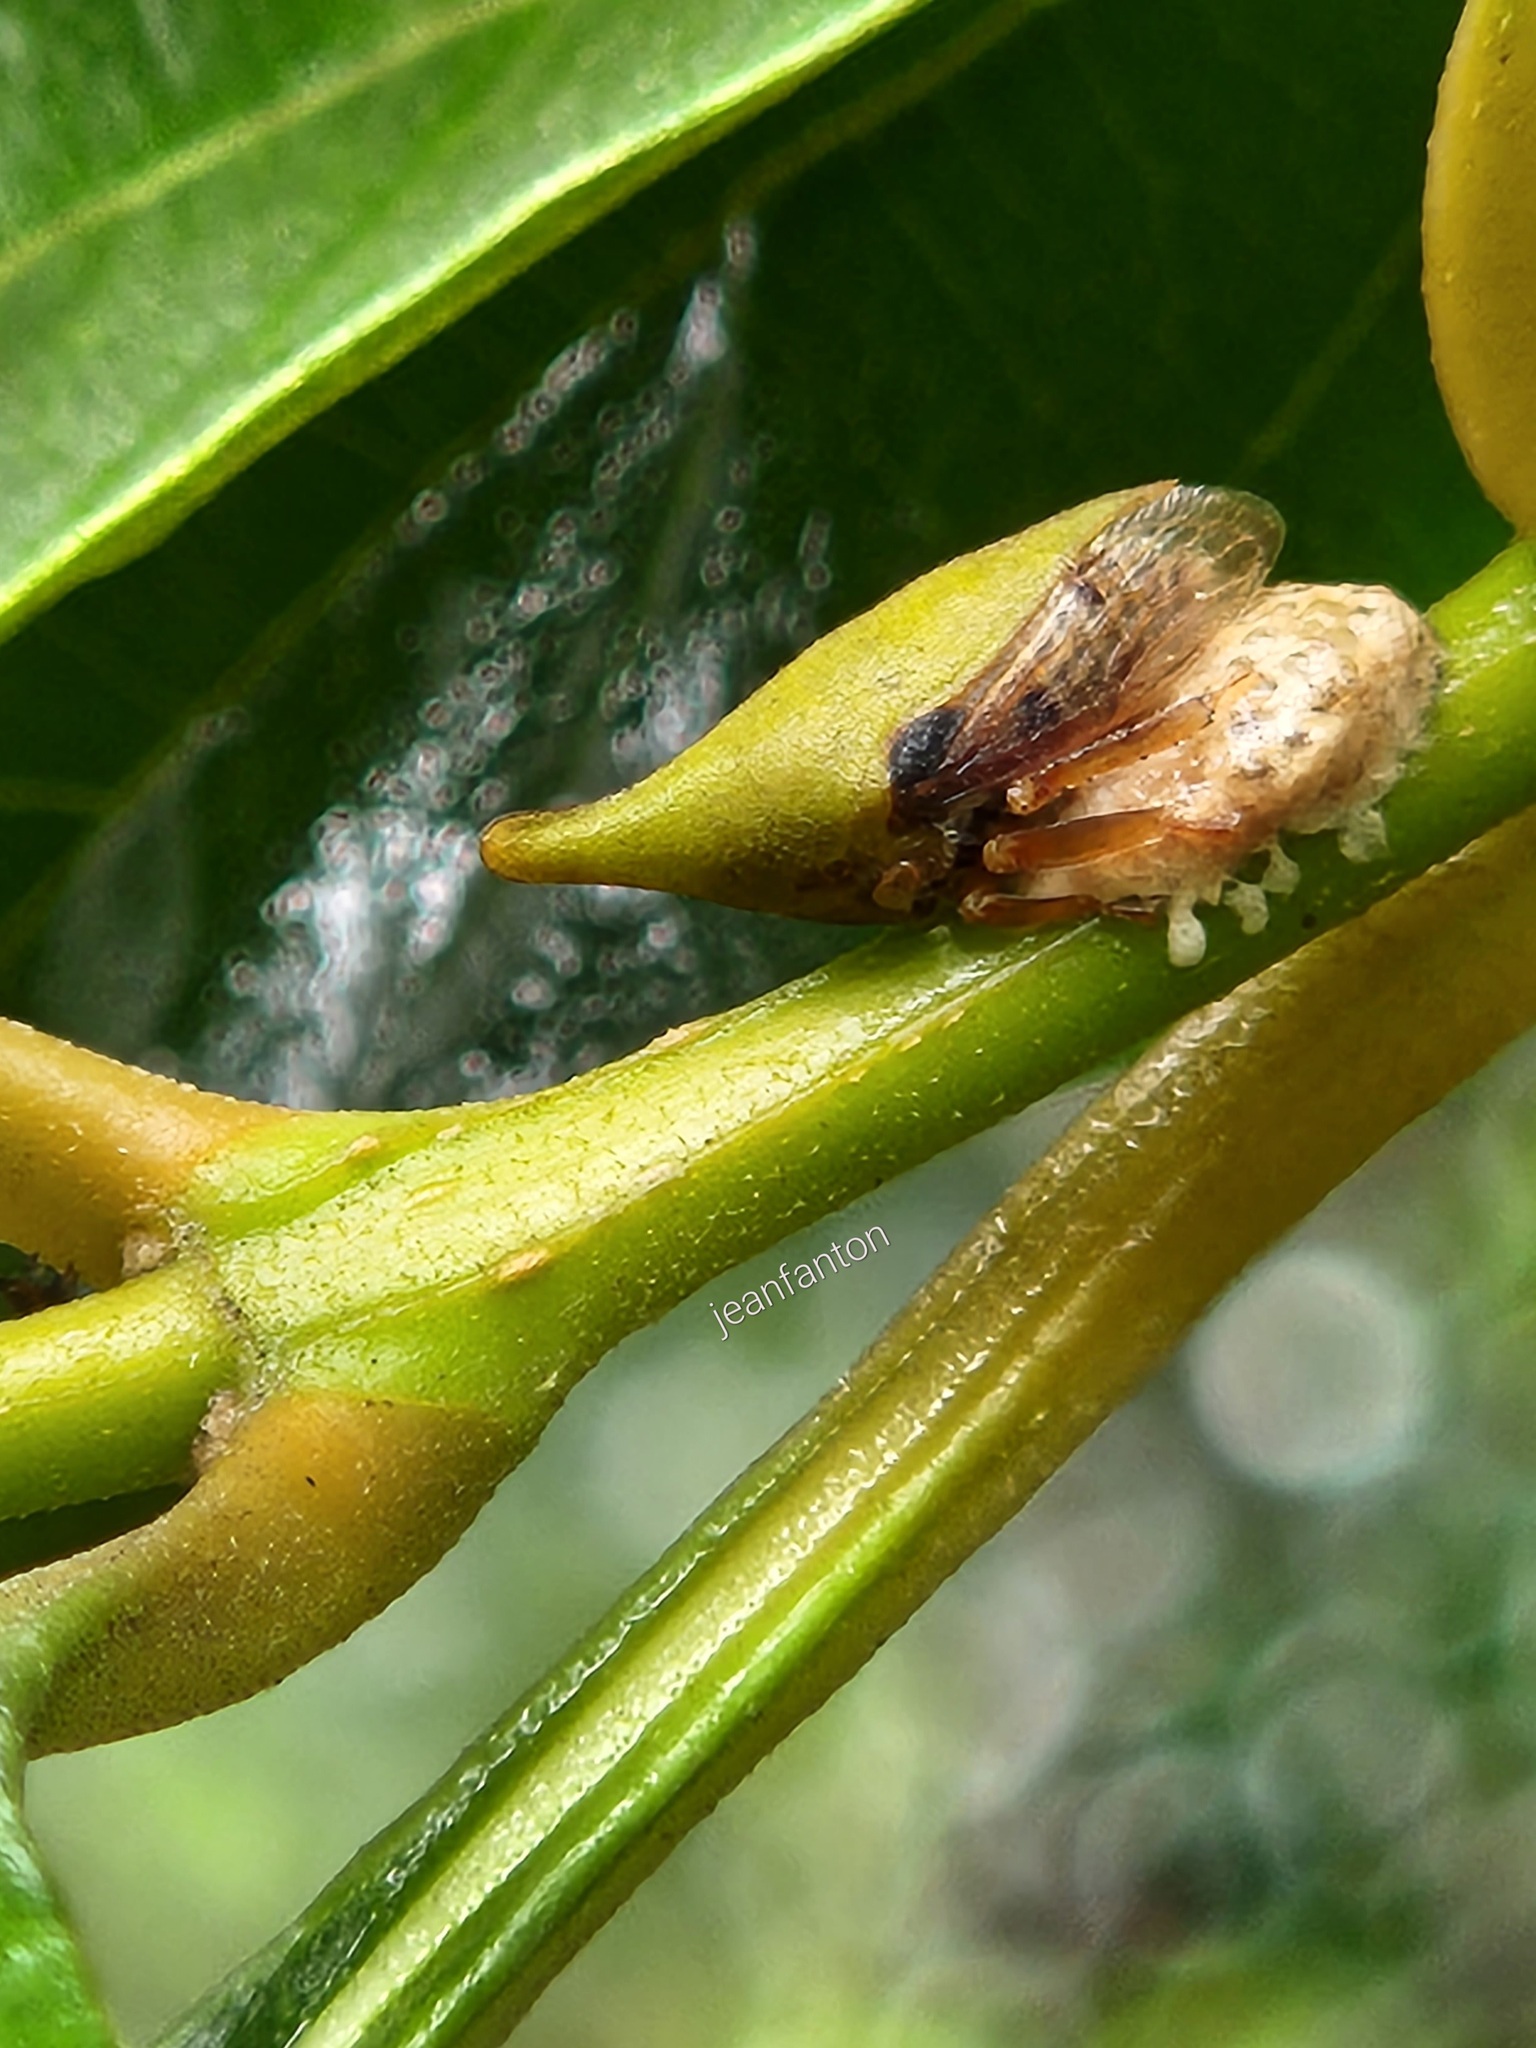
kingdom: Animalia
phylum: Arthropoda
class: Insecta
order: Hemiptera
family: Membracidae
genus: Guayaquila
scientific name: Guayaquila xiphias
